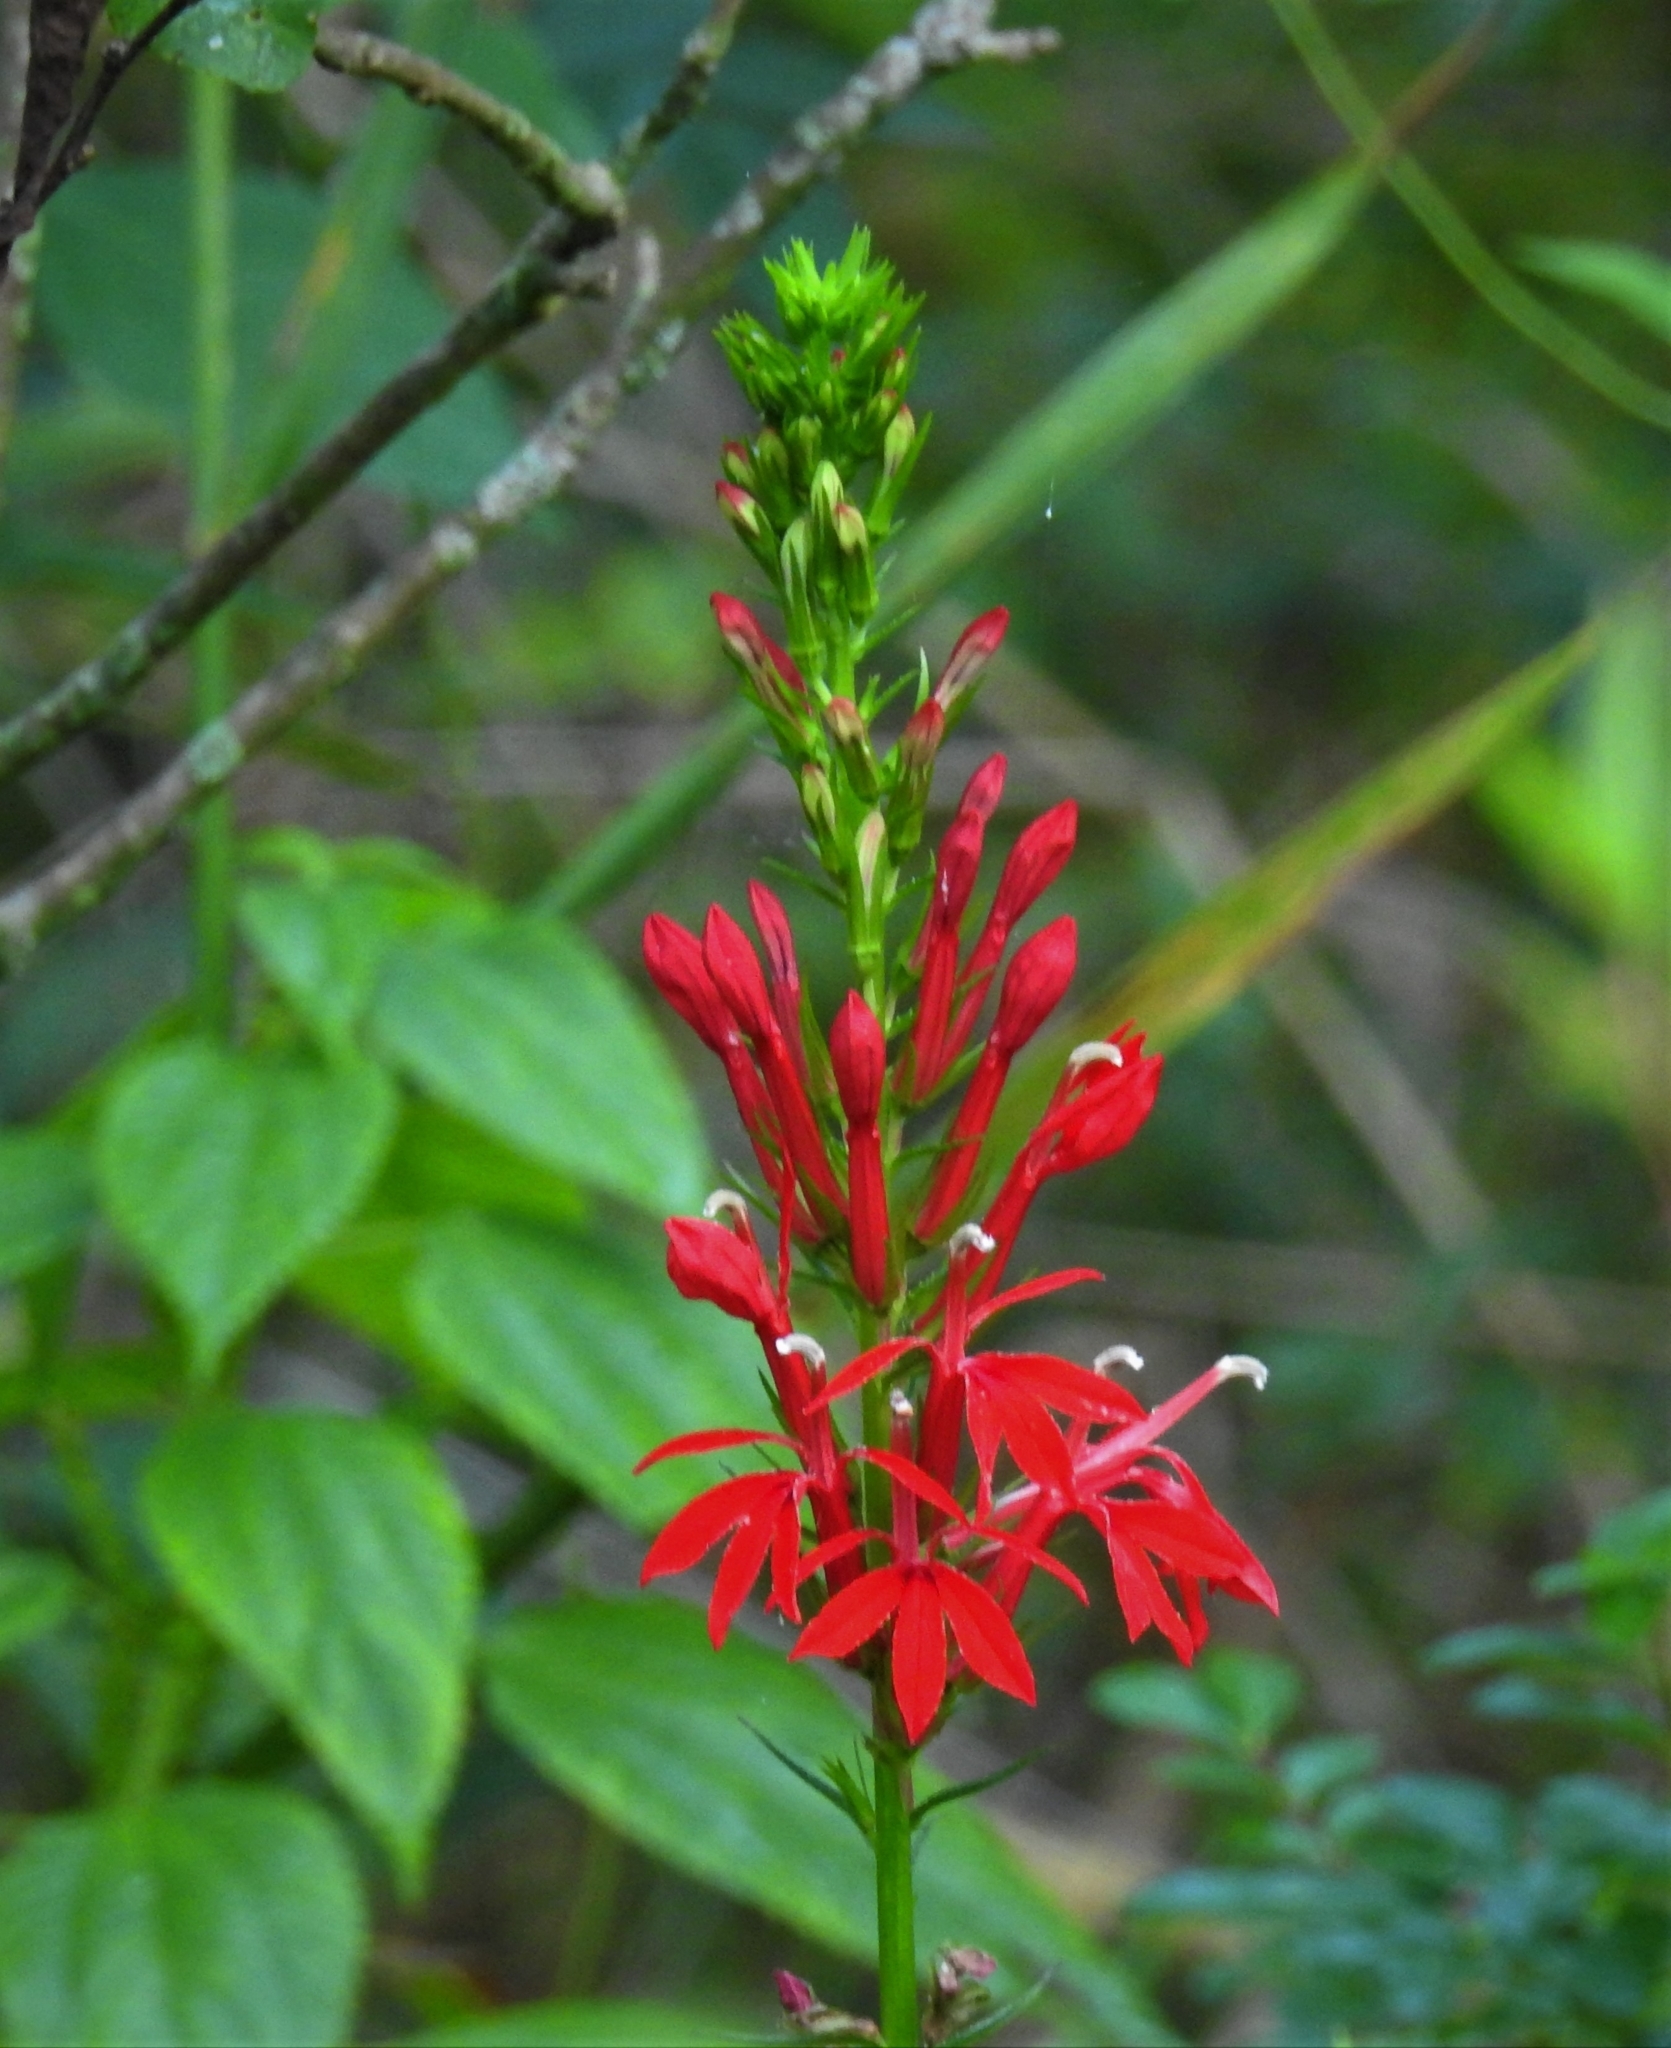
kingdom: Plantae
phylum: Tracheophyta
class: Magnoliopsida
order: Asterales
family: Campanulaceae
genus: Lobelia
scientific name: Lobelia cardinalis
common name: Cardinal flower
